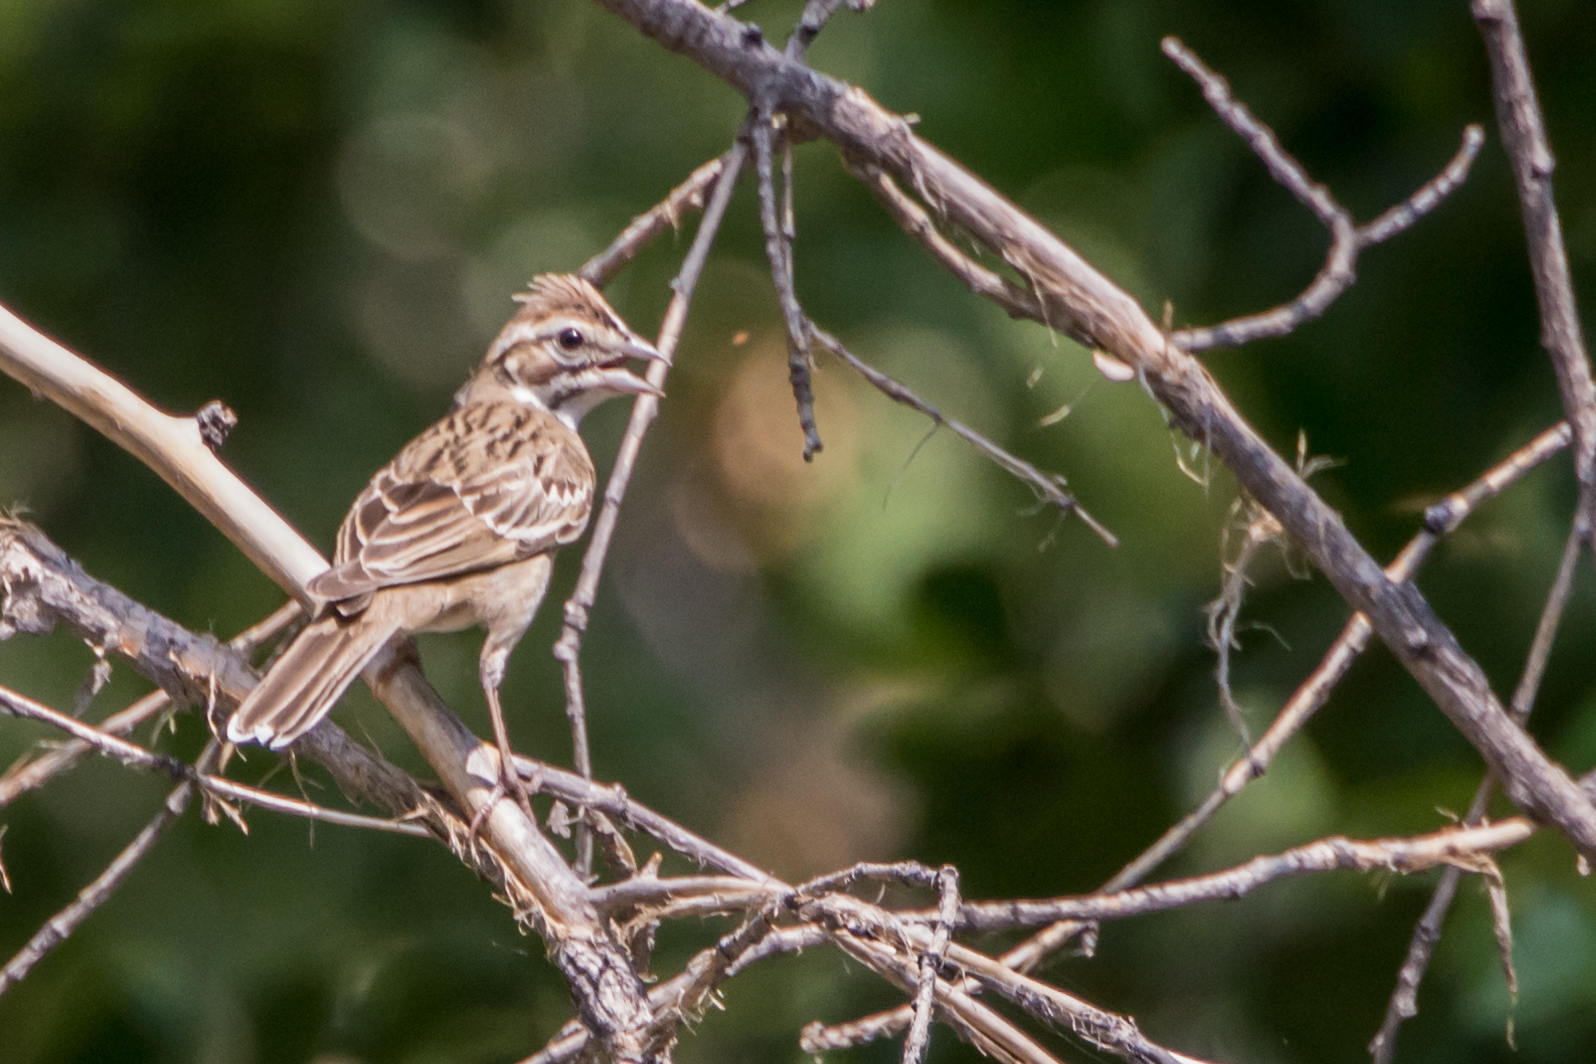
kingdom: Animalia
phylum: Chordata
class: Aves
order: Passeriformes
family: Passerellidae
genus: Chondestes
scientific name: Chondestes grammacus
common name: Lark sparrow
